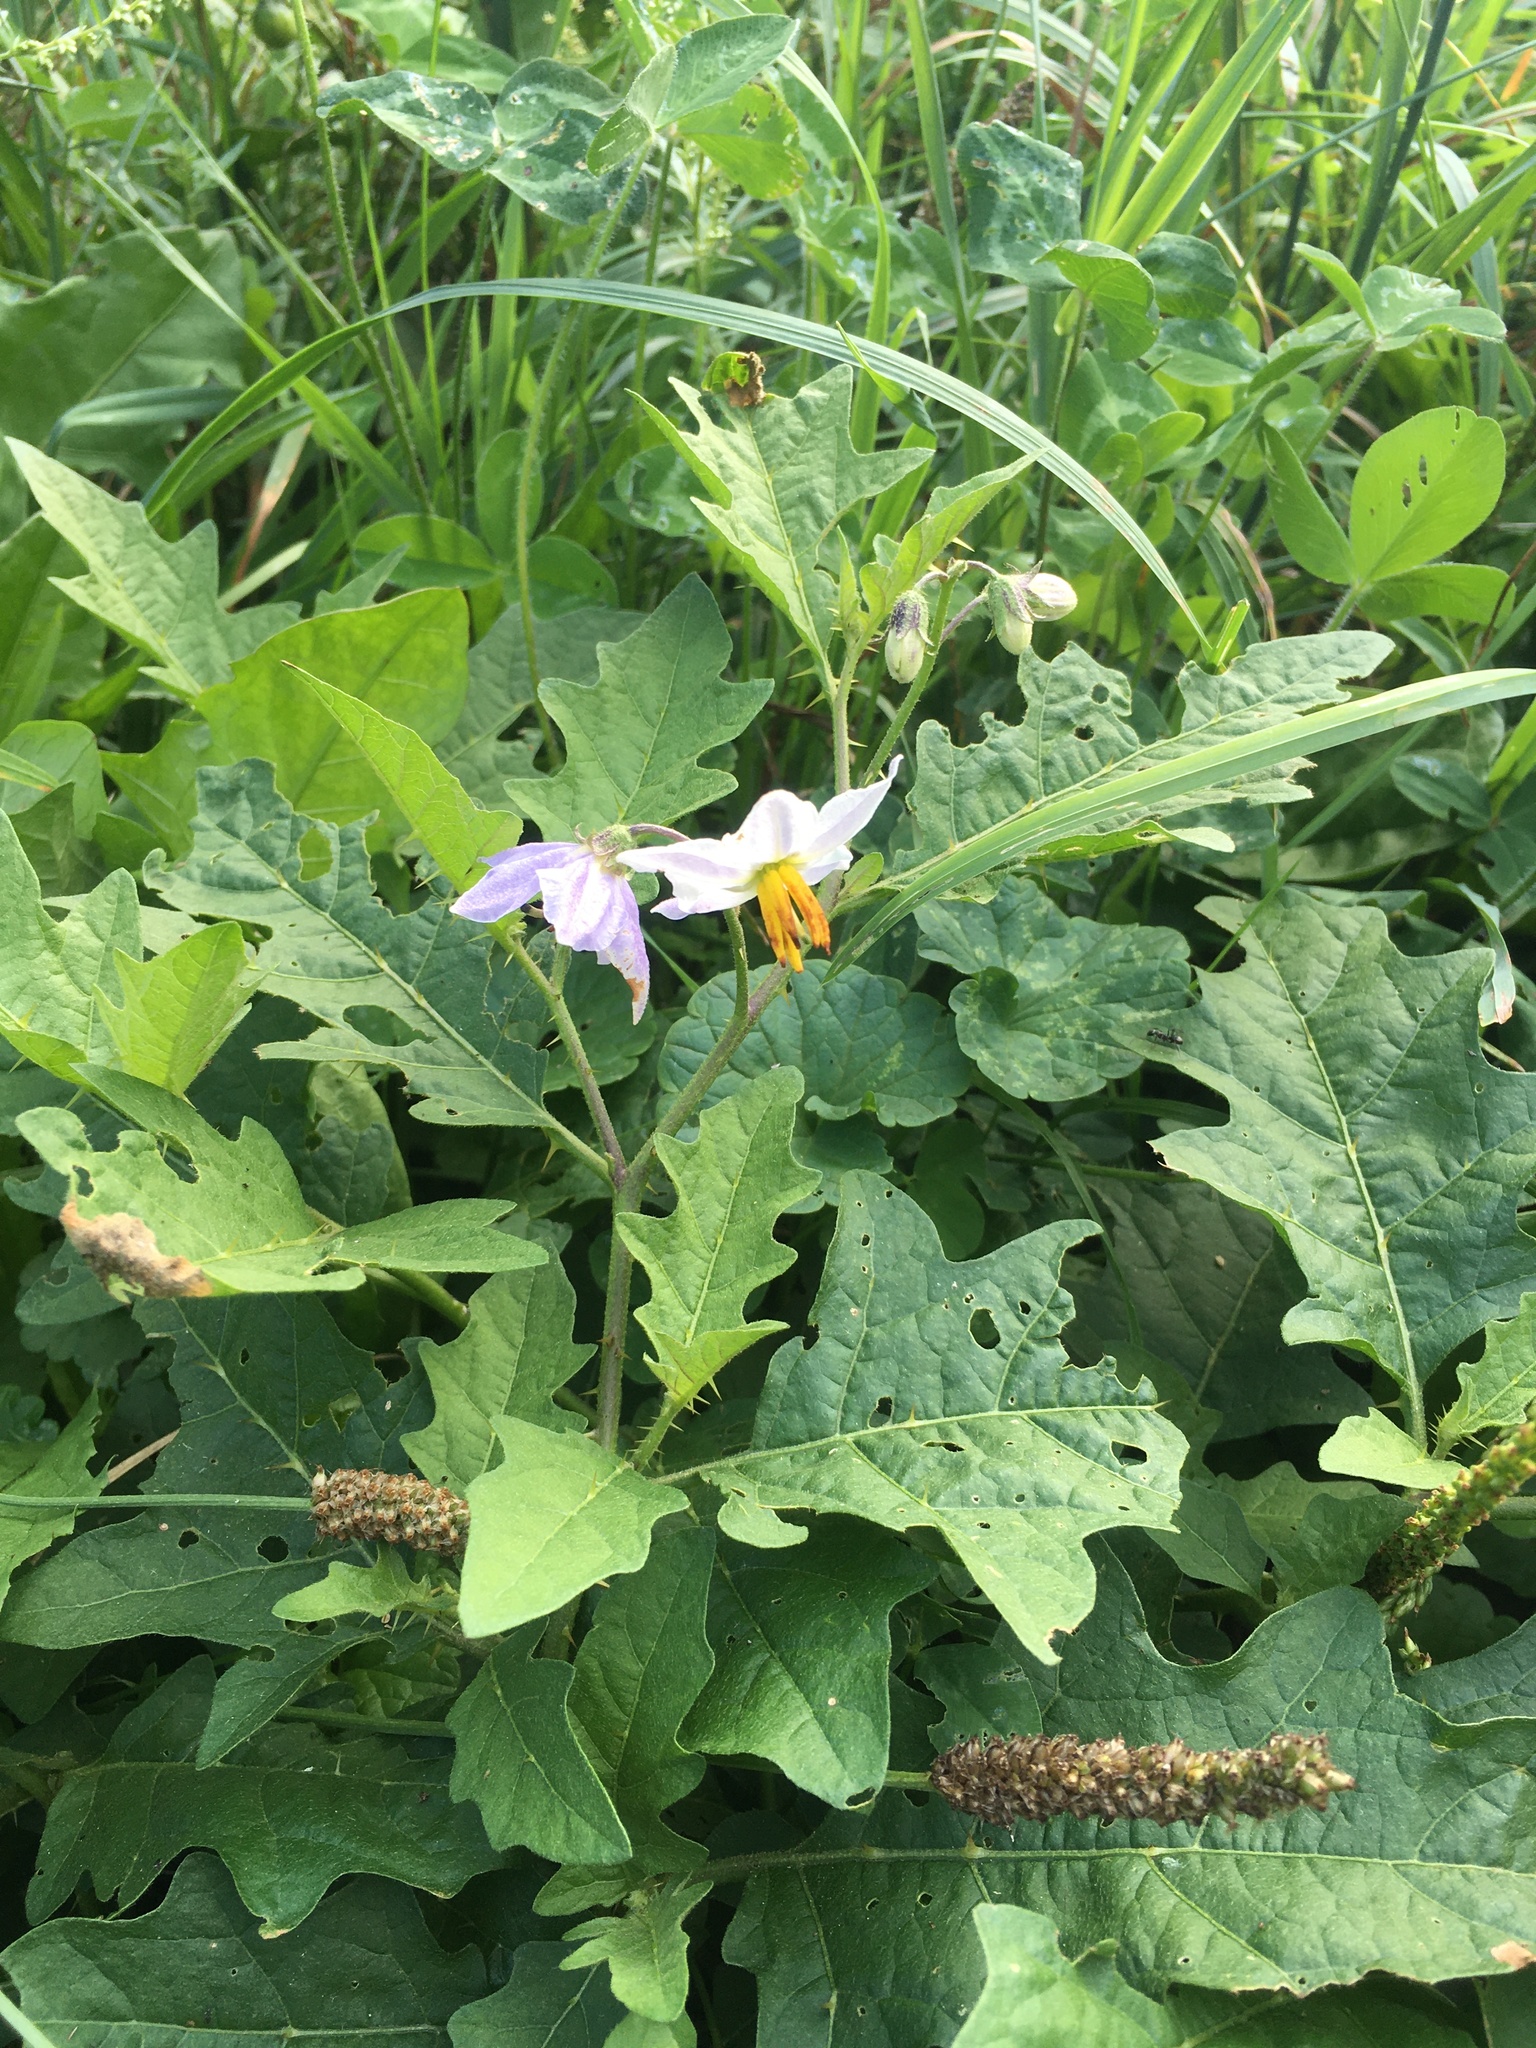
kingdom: Plantae
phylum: Tracheophyta
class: Magnoliopsida
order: Solanales
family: Solanaceae
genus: Solanum
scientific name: Solanum carolinense
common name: Horse-nettle
